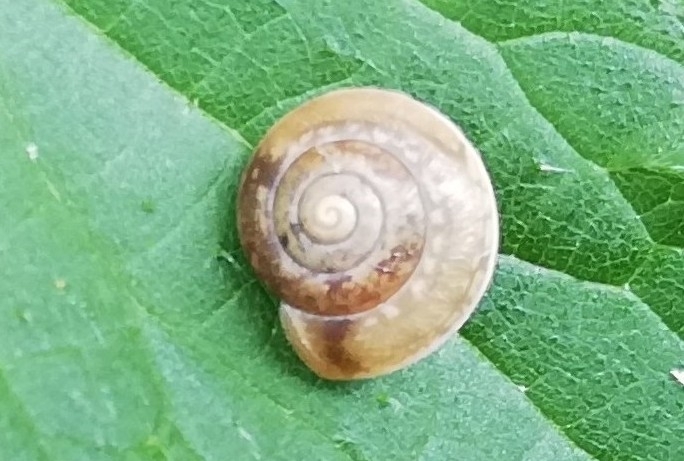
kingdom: Animalia
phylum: Mollusca
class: Gastropoda
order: Stylommatophora
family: Hygromiidae
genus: Hygromia
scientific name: Hygromia cinctella
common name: Girdled snail
